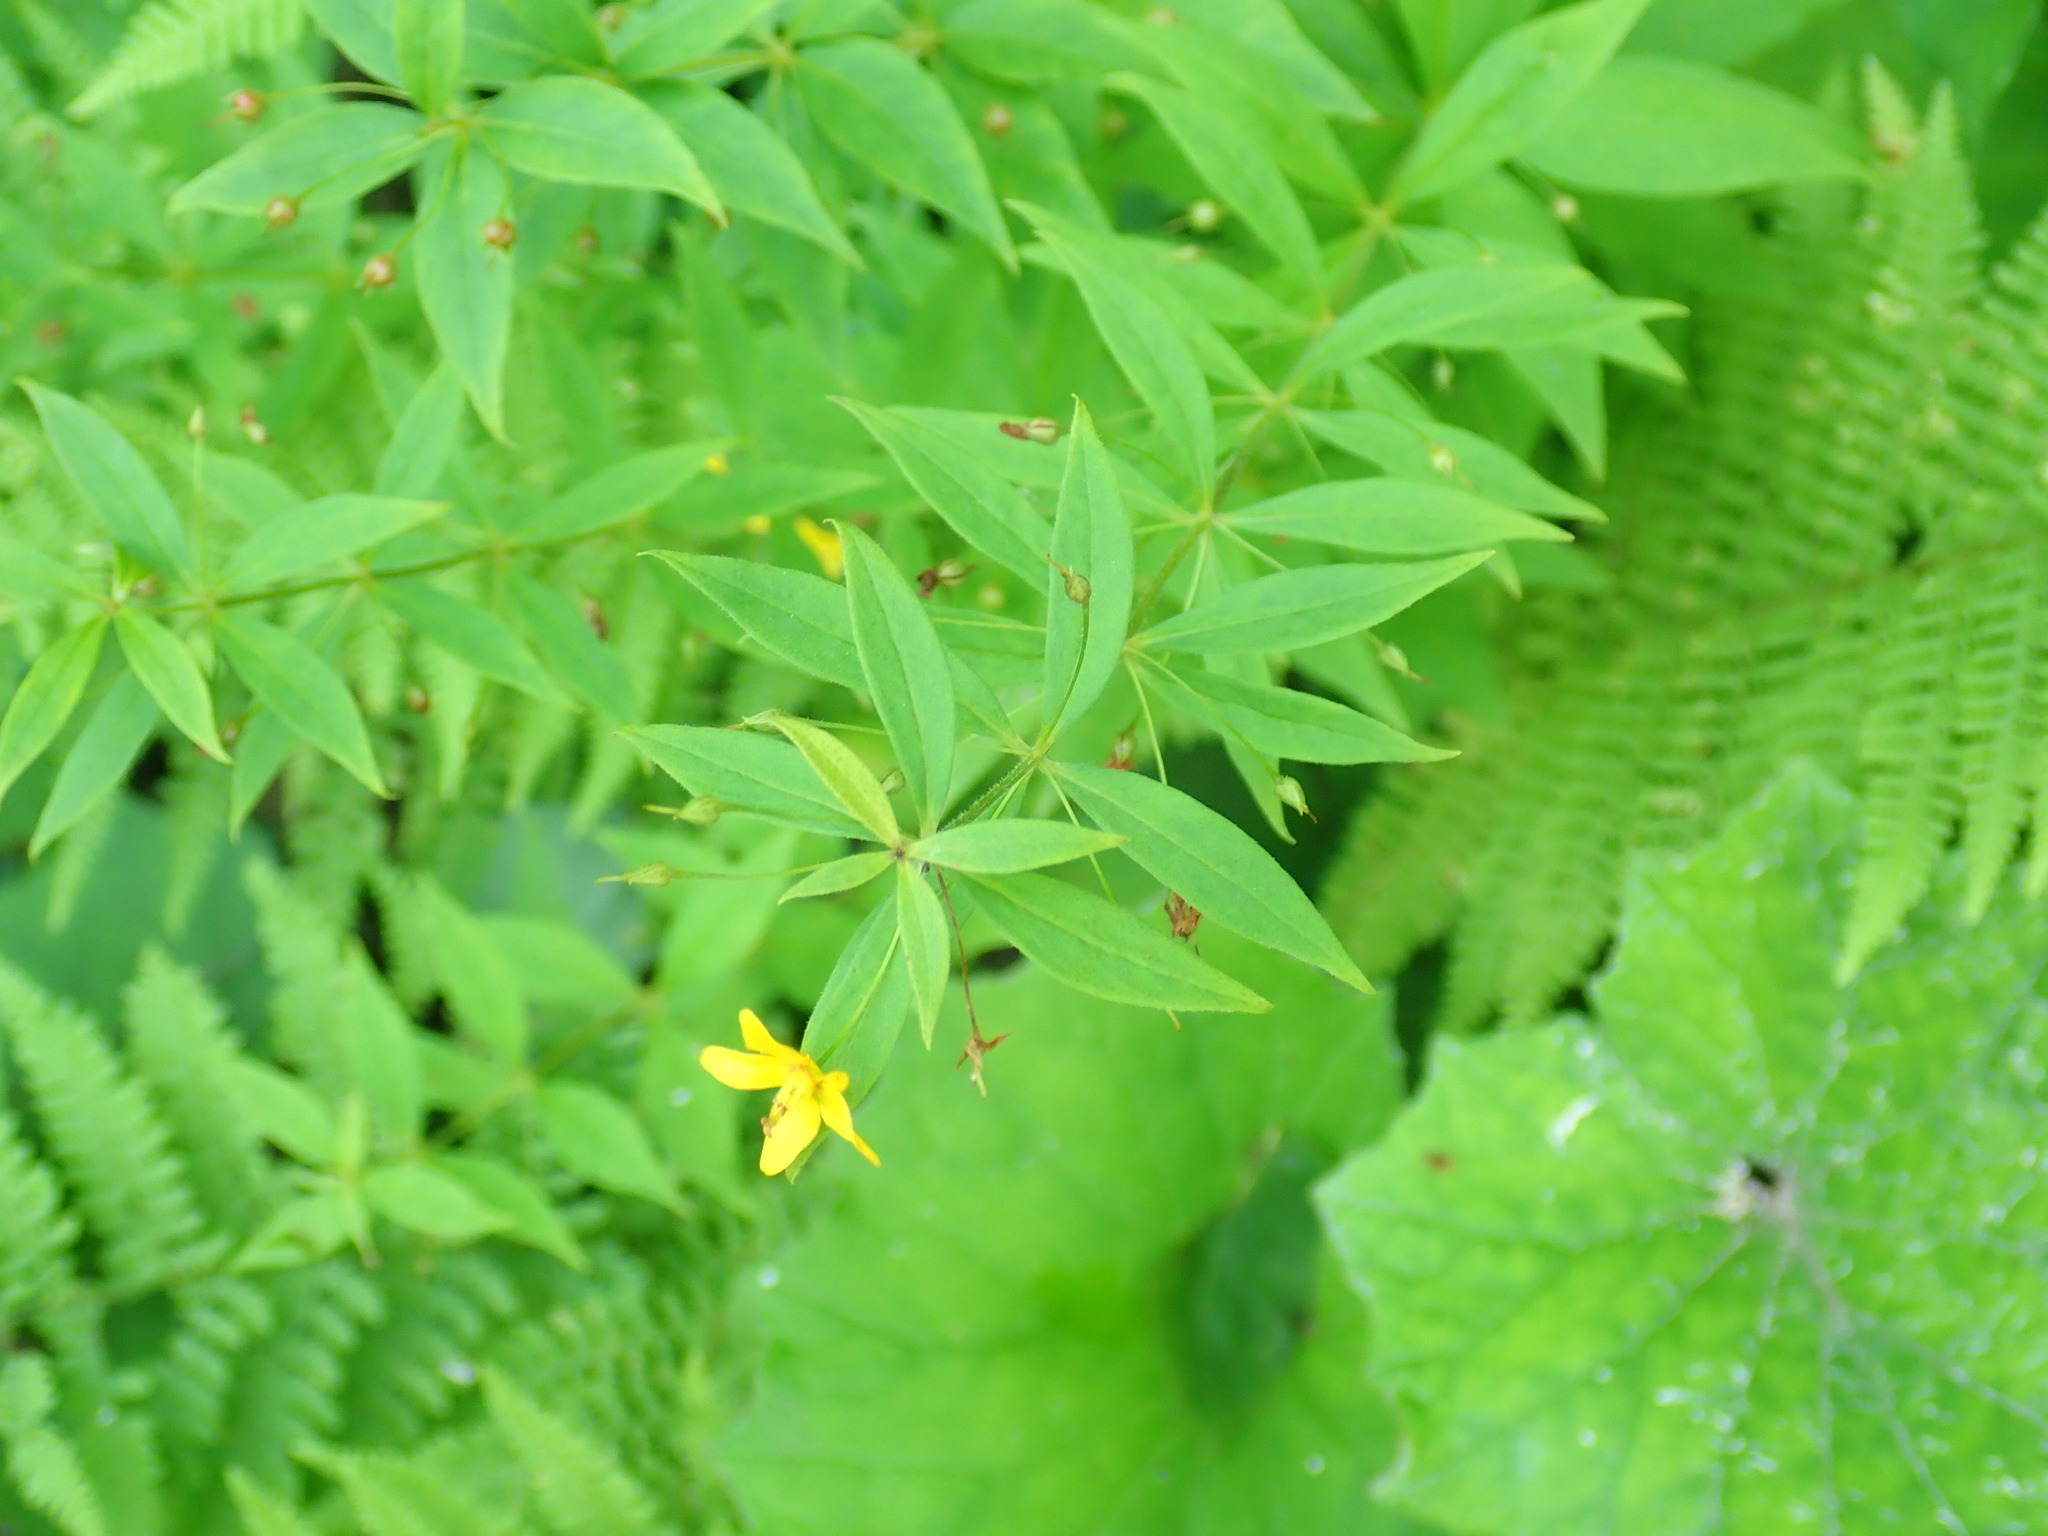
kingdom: Plantae
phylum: Tracheophyta
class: Magnoliopsida
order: Ericales
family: Primulaceae
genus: Lysimachia
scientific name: Lysimachia quadrifolia
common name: Whorled loosestrife
